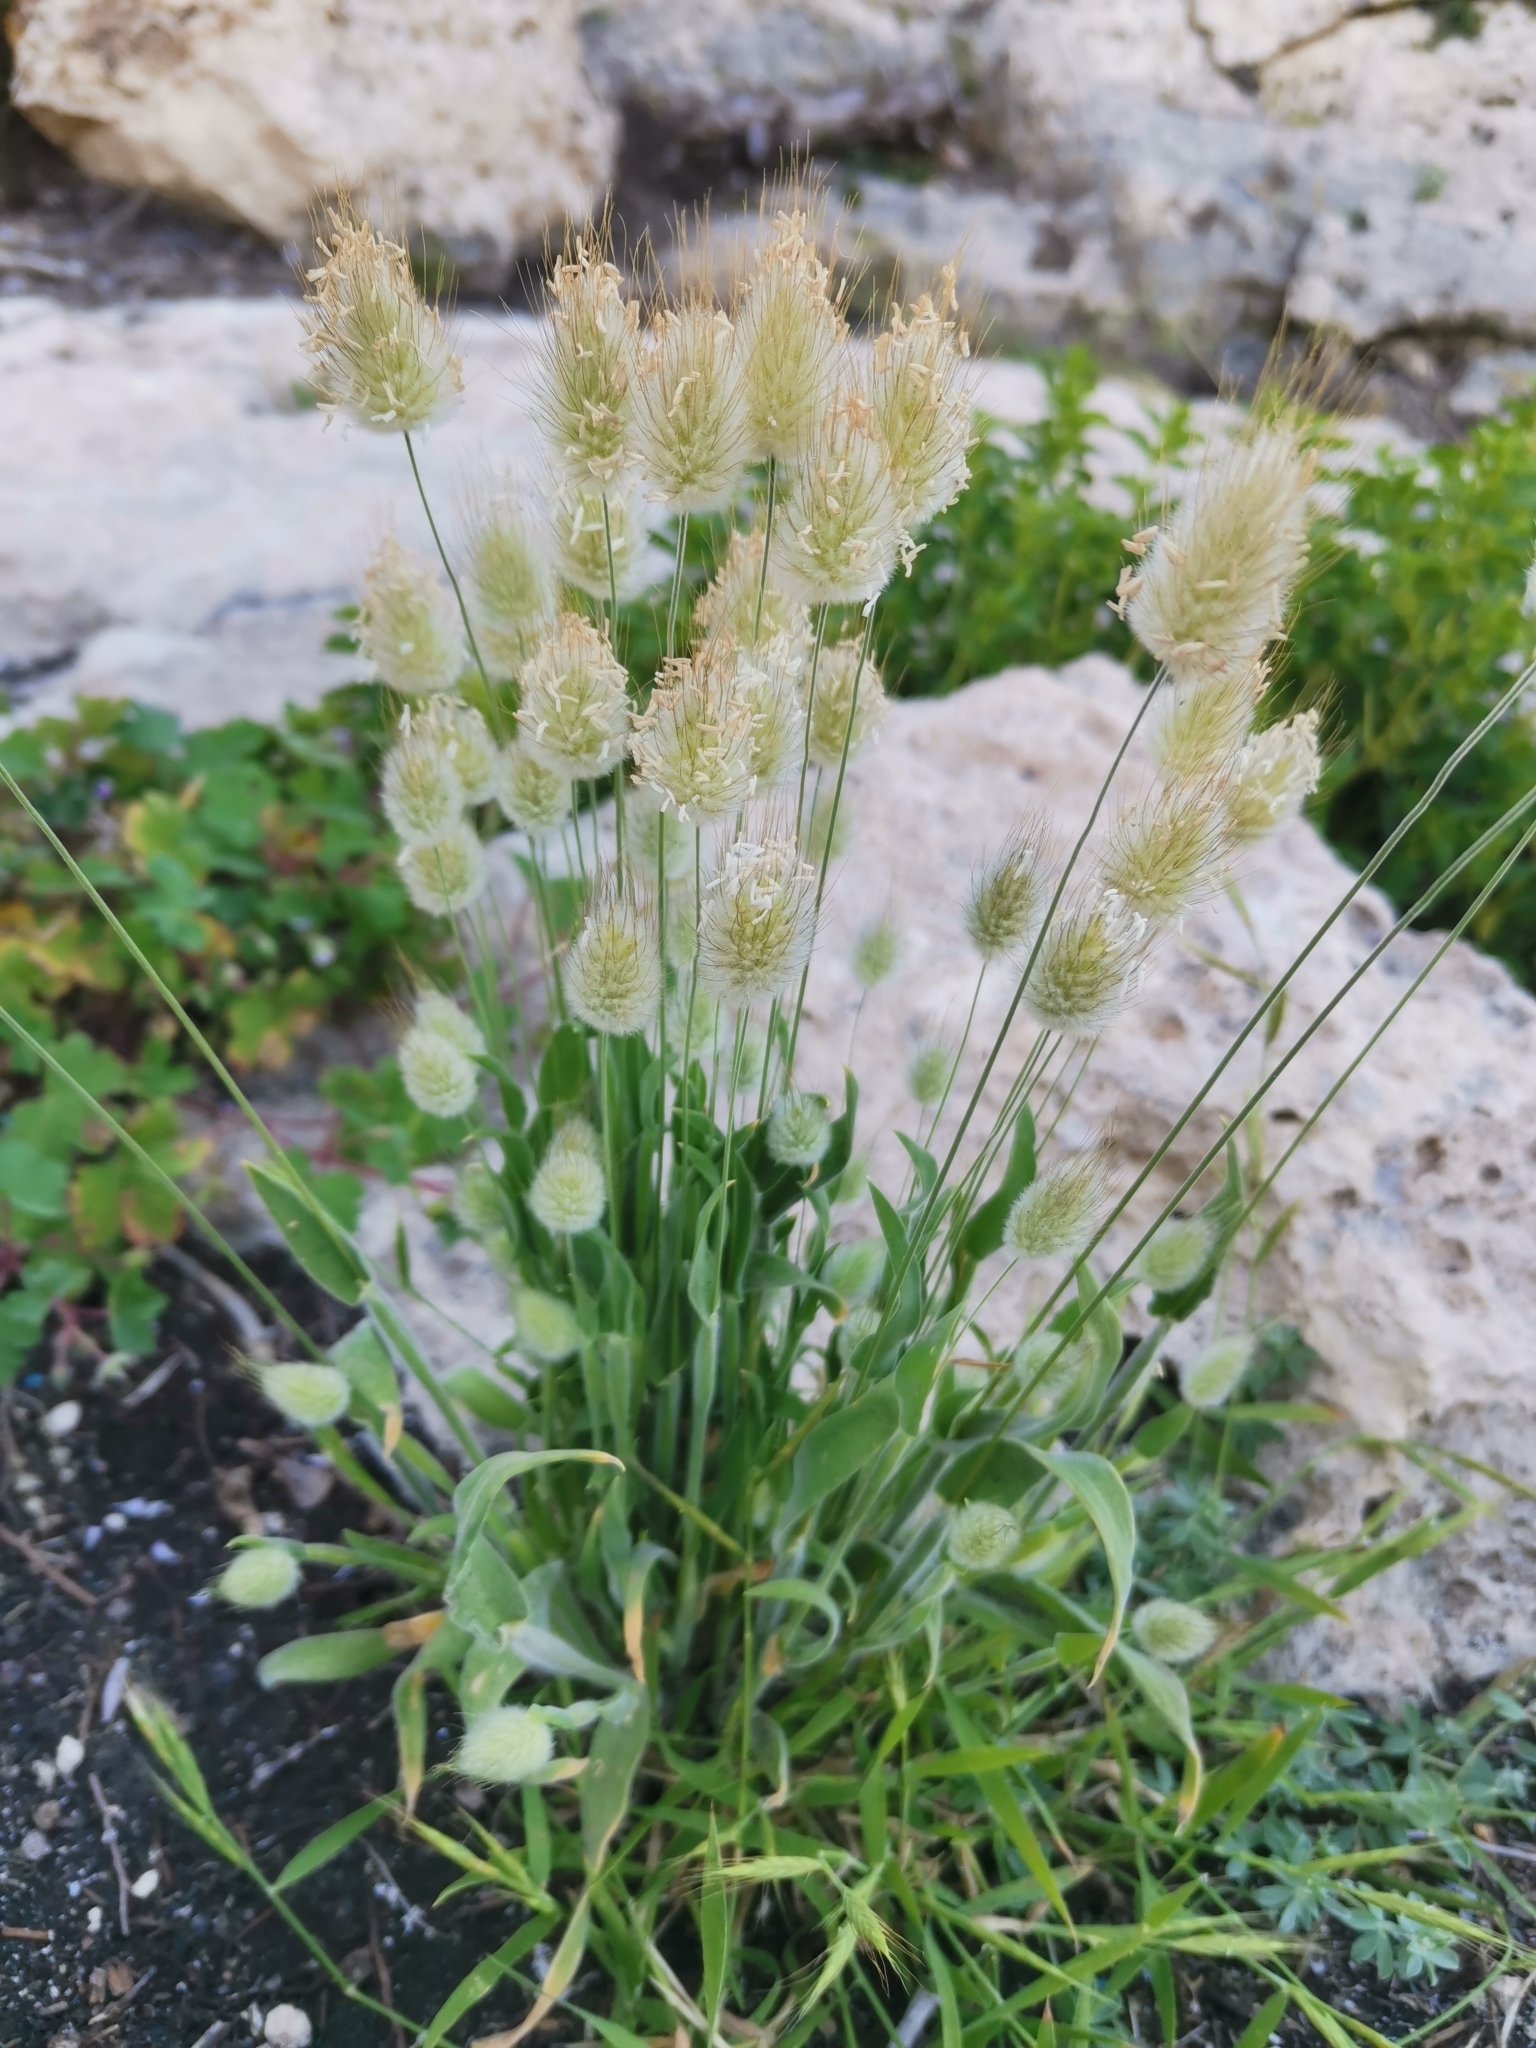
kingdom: Plantae
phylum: Tracheophyta
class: Liliopsida
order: Poales
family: Poaceae
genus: Lagurus
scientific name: Lagurus ovatus
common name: Hare's-tail
